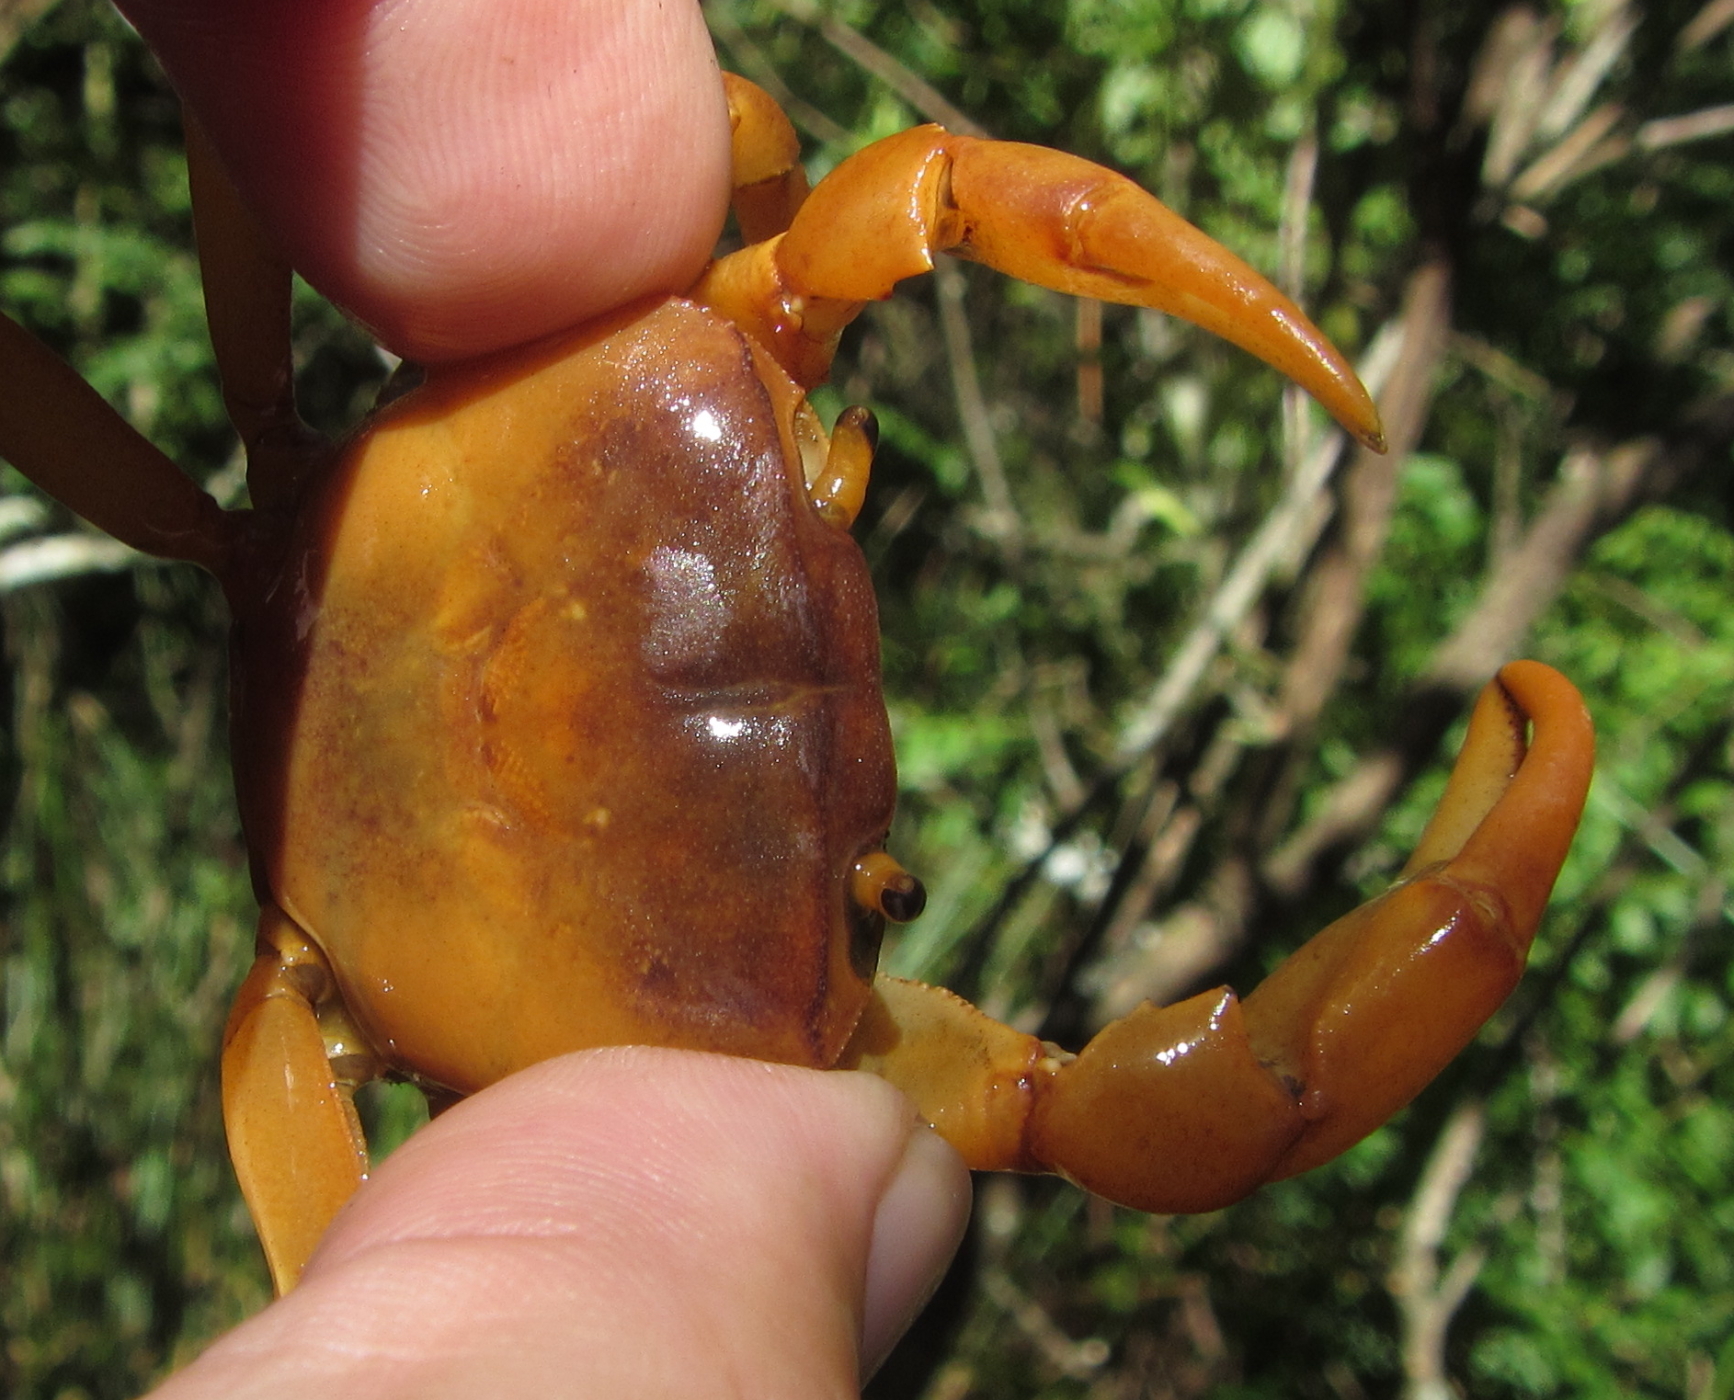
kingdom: Animalia
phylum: Arthropoda
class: Malacostraca
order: Decapoda
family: Potamonautidae
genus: Potamonautes
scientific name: Potamonautes depressus
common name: Flat river crab
